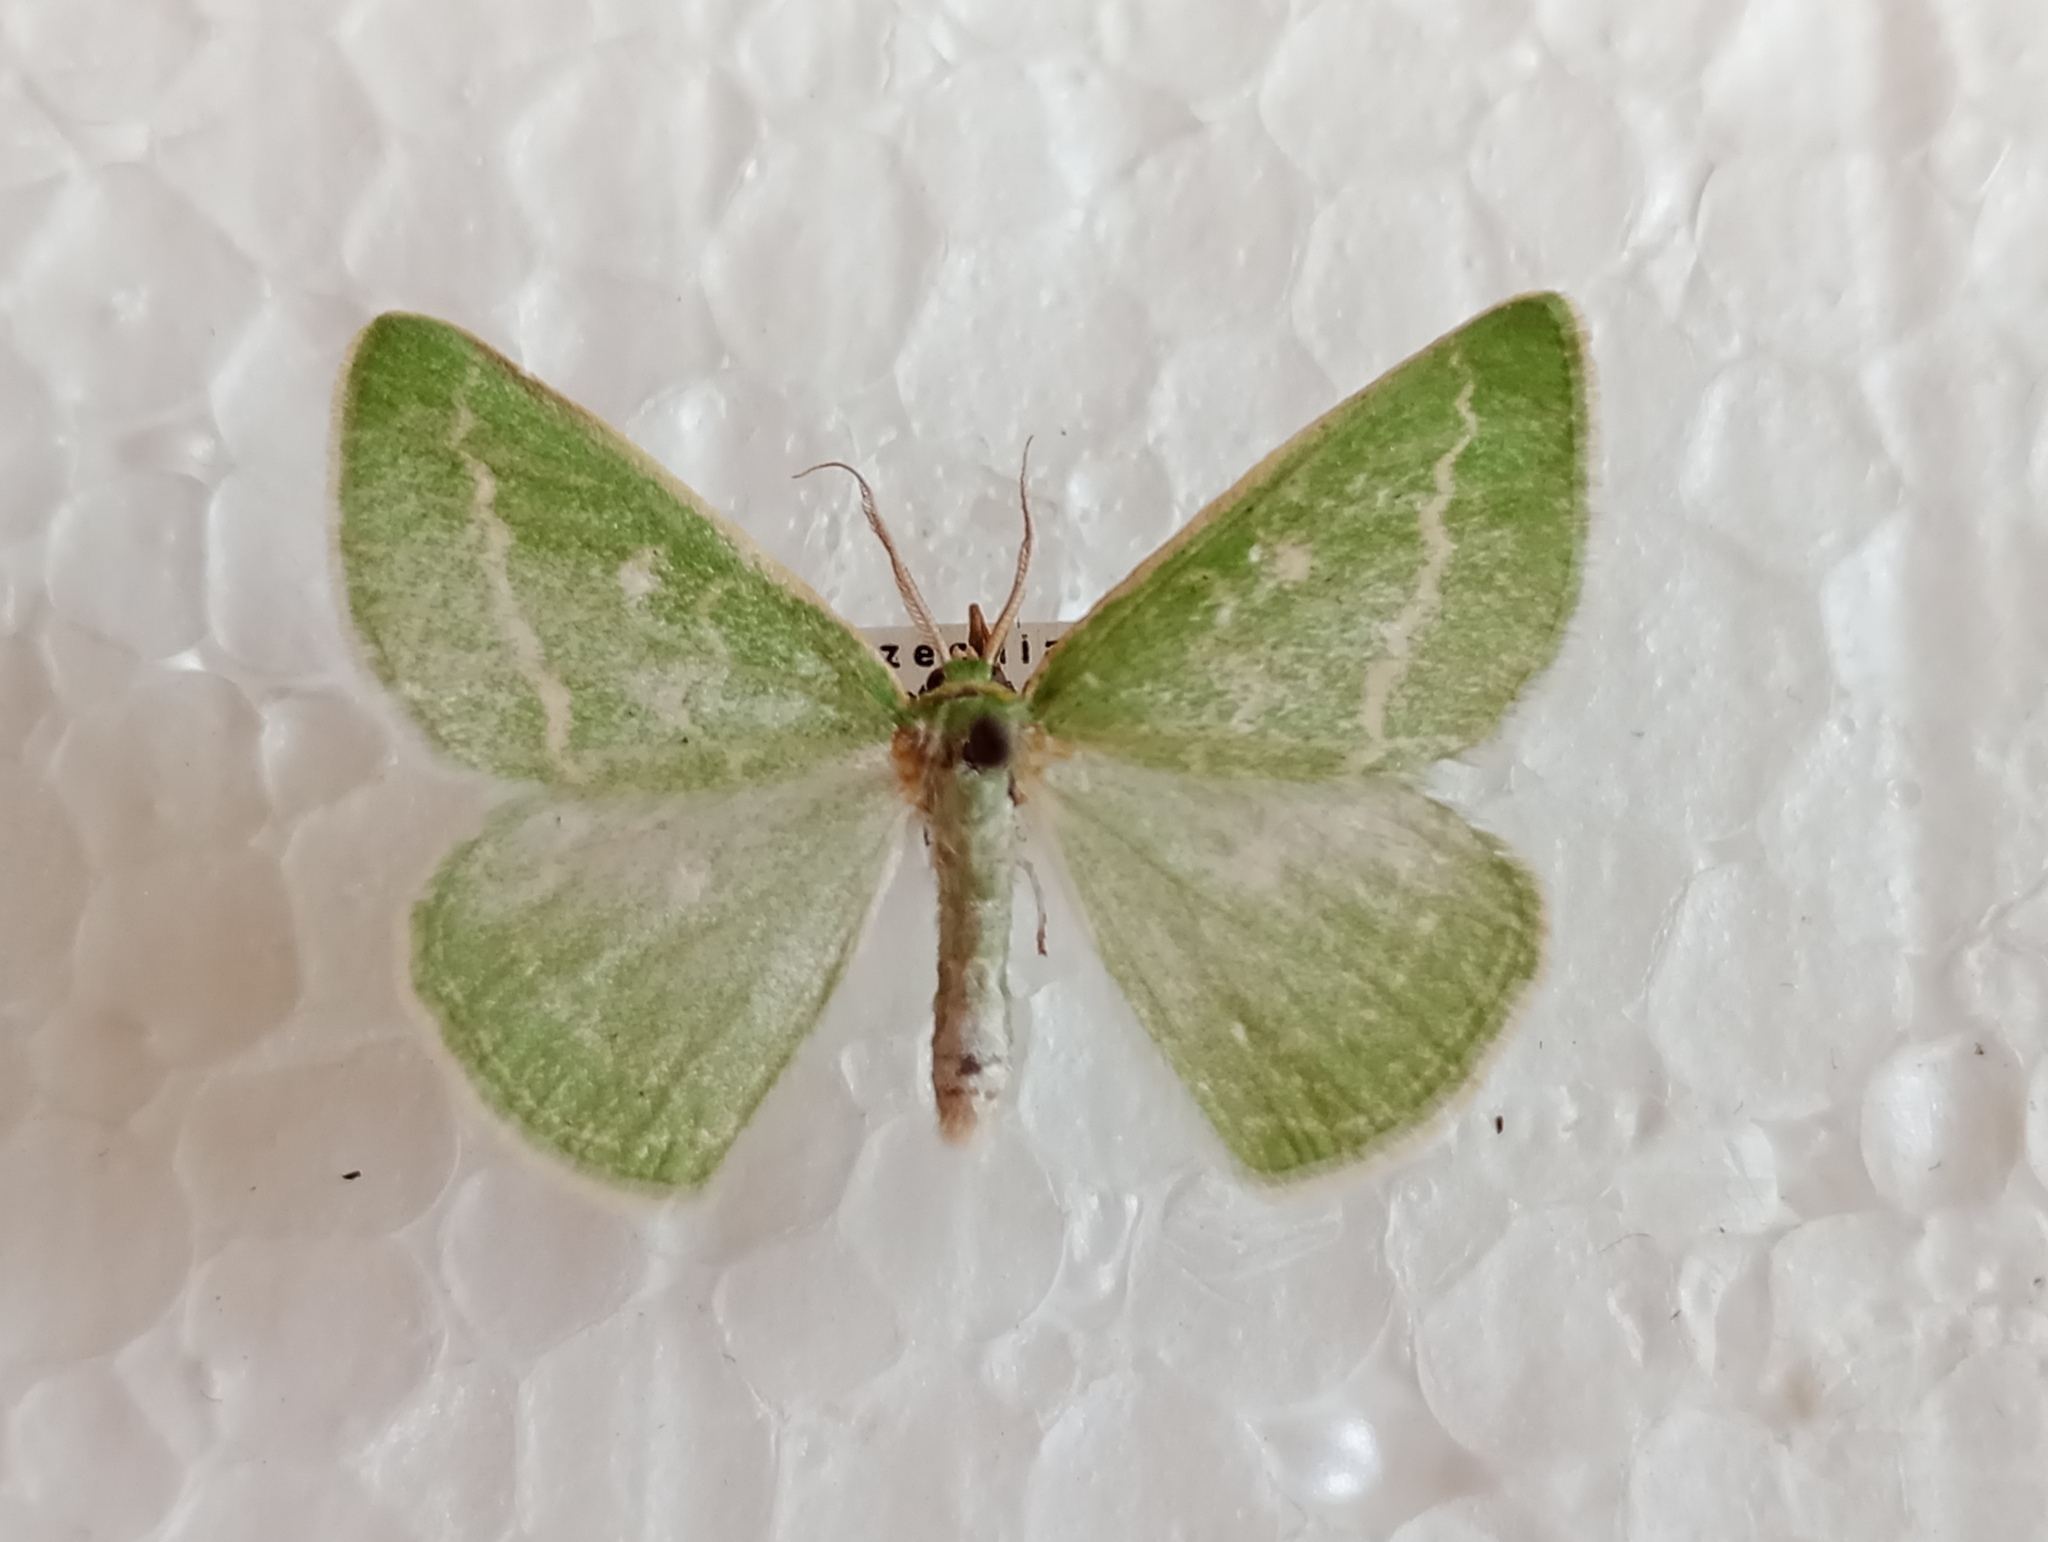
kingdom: Animalia
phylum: Arthropoda
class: Insecta
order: Lepidoptera
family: Geometridae
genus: Thetidia
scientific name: Thetidia smaragdaria
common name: Essex emerald
